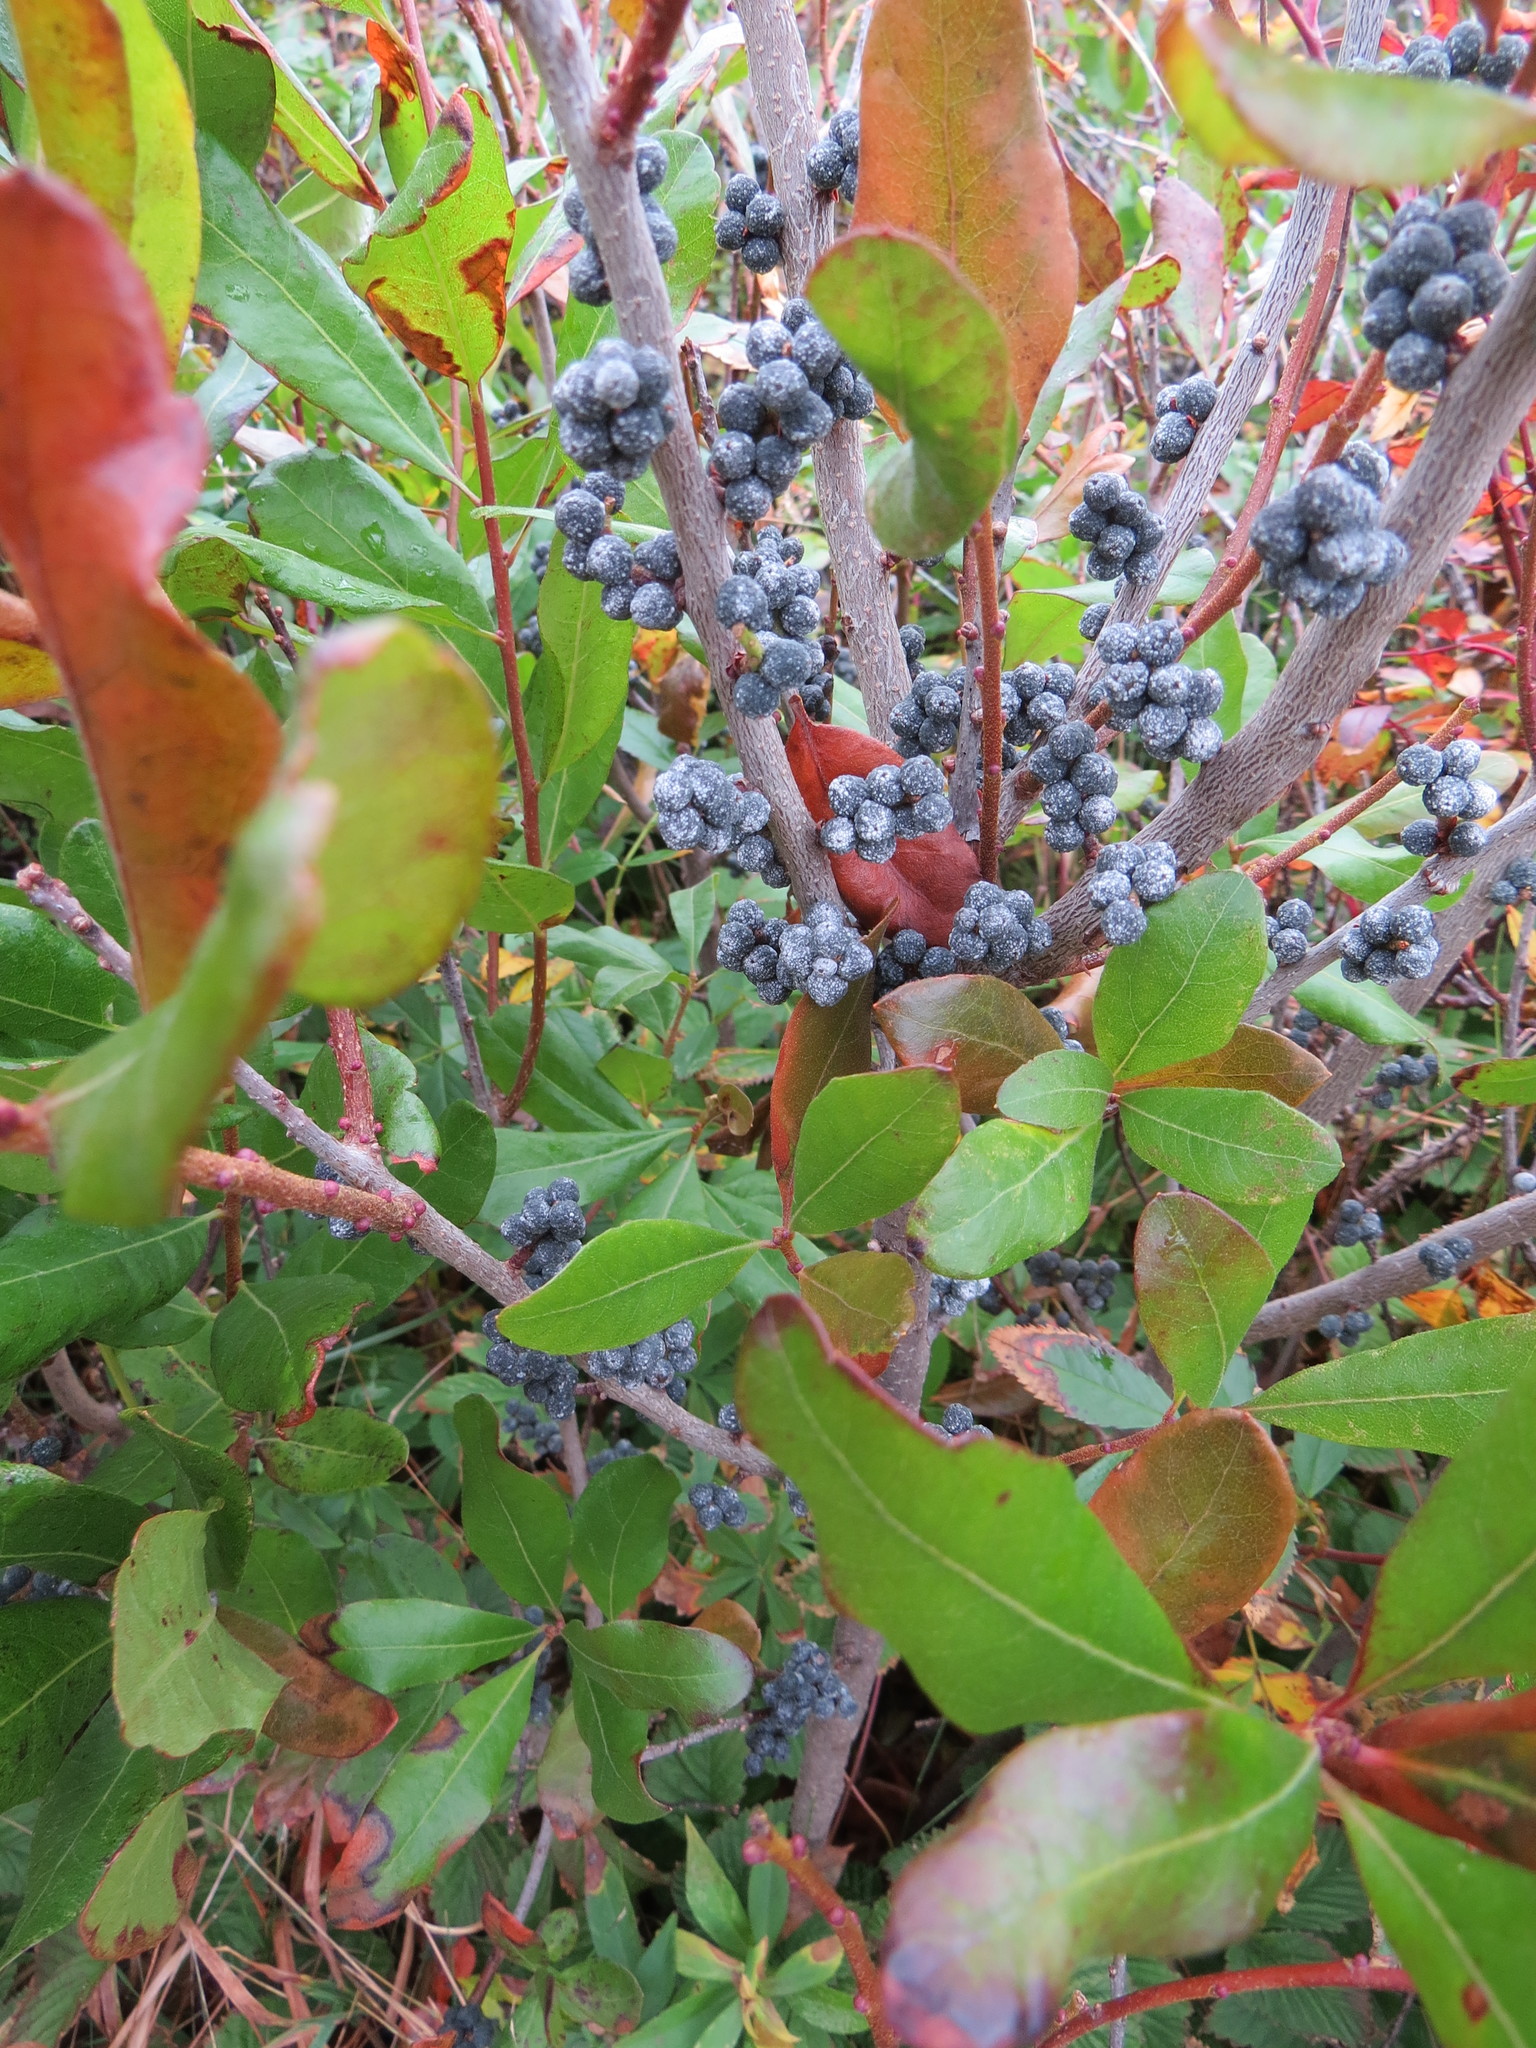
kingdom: Plantae
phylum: Tracheophyta
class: Magnoliopsida
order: Fagales
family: Myricaceae
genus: Morella
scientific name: Morella pensylvanica
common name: Northern bayberry
